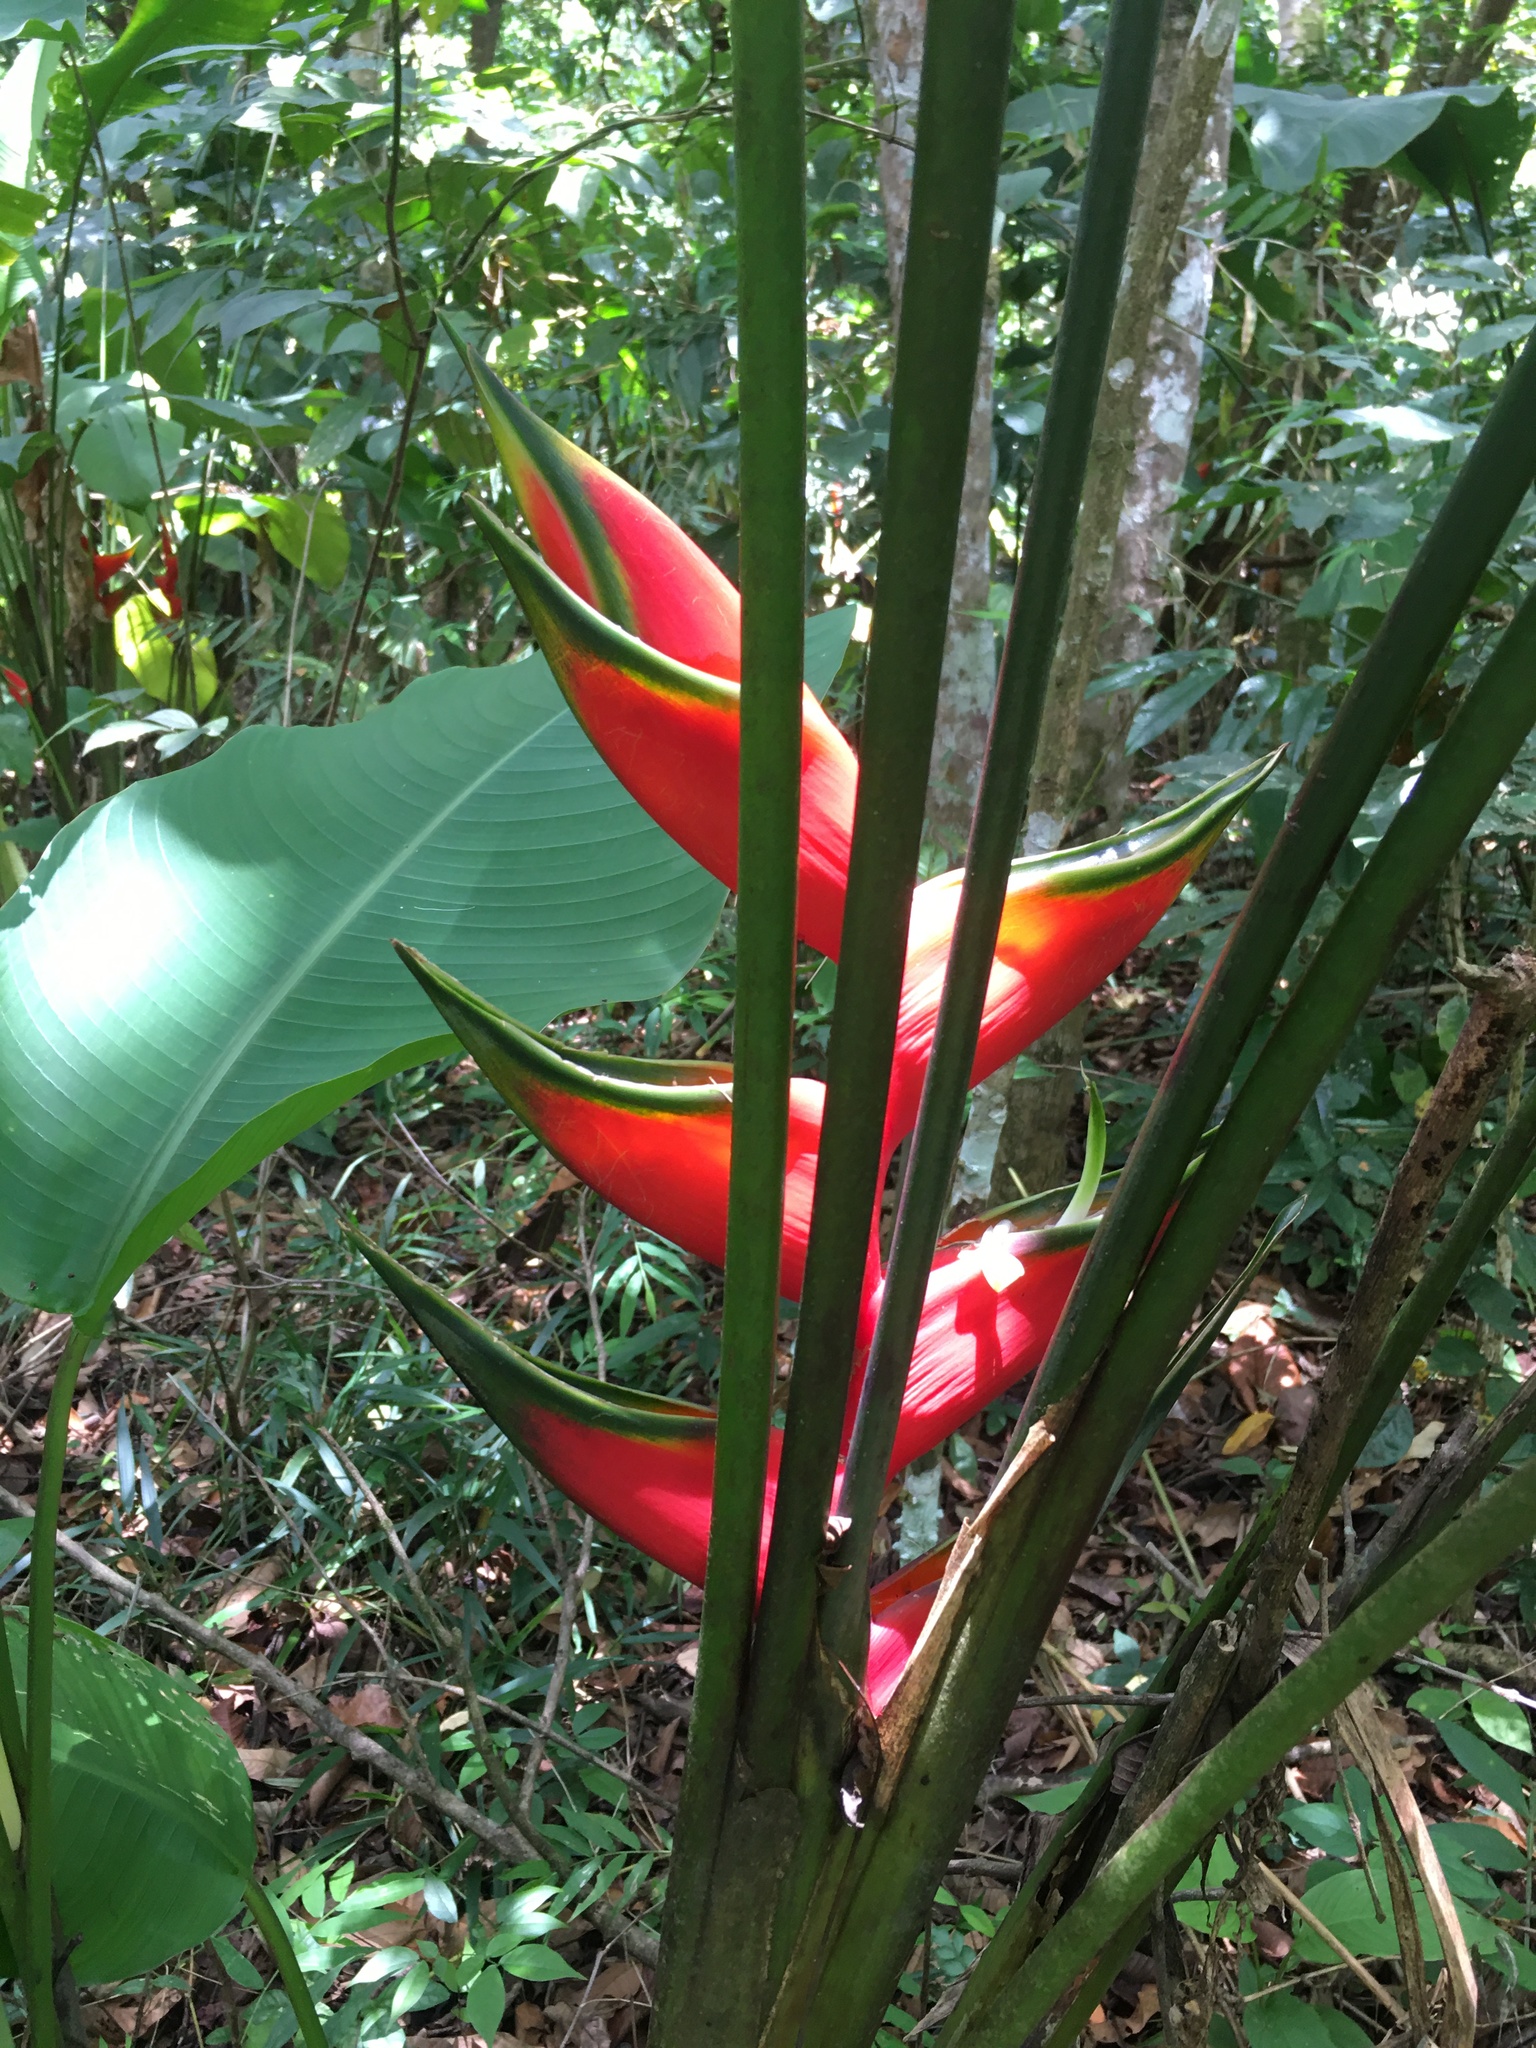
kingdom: Plantae
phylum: Tracheophyta
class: Liliopsida
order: Zingiberales
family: Heliconiaceae
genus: Heliconia
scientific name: Heliconia bihai
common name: Macaw flower
